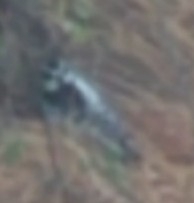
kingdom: Animalia
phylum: Chordata
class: Aves
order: Piciformes
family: Picidae
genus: Dryobates
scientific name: Dryobates pubescens
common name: Downy woodpecker
